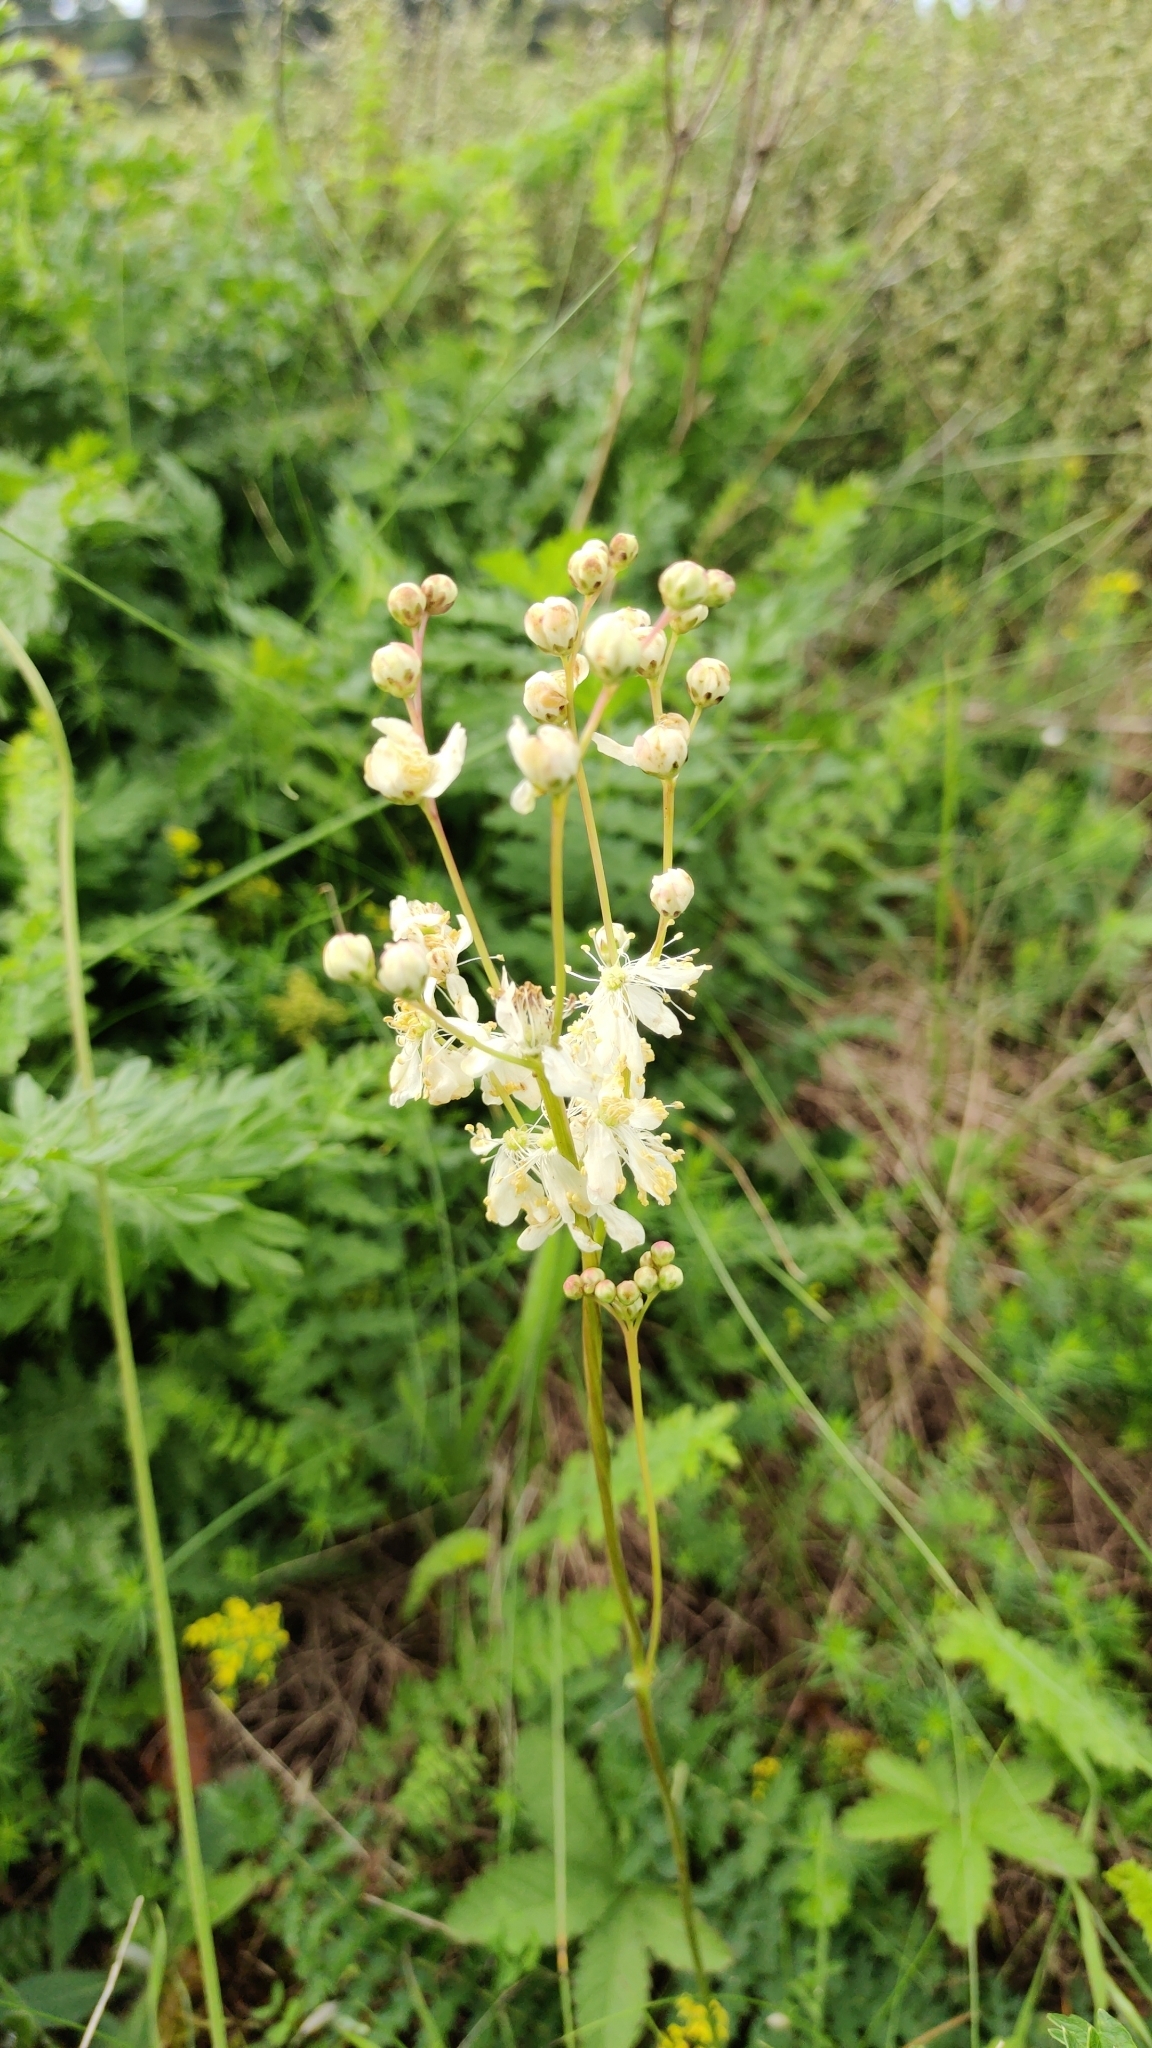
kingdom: Plantae
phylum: Tracheophyta
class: Magnoliopsida
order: Rosales
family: Rosaceae
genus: Filipendula
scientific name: Filipendula vulgaris
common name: Dropwort
